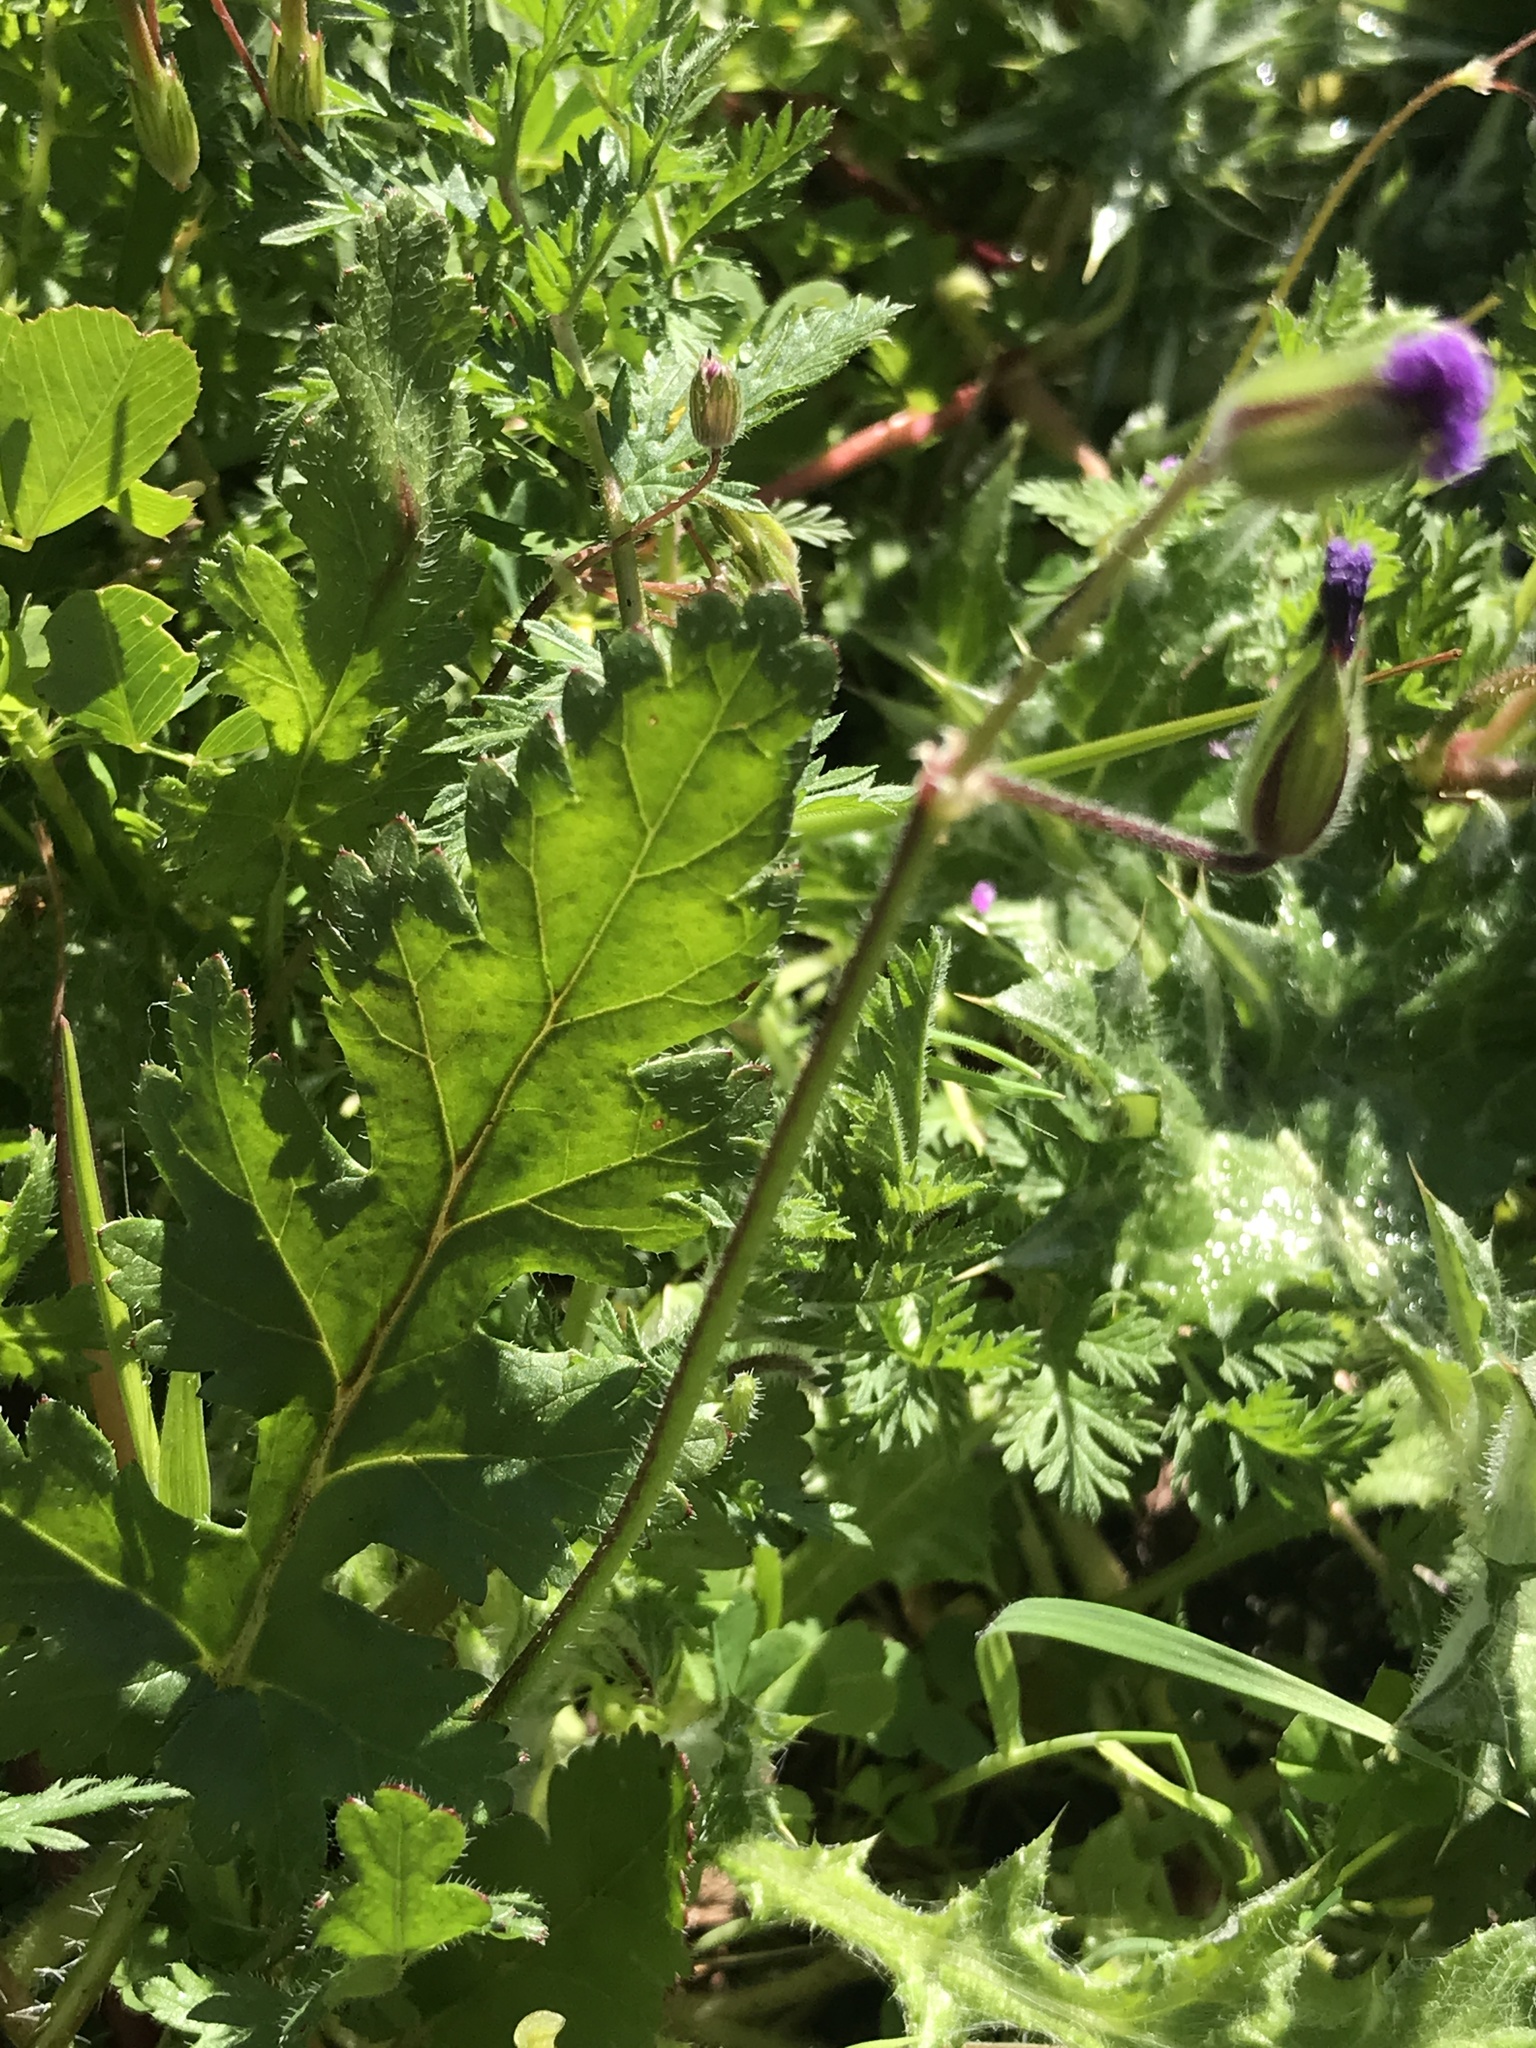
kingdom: Plantae
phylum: Tracheophyta
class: Magnoliopsida
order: Geraniales
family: Geraniaceae
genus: Erodium
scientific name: Erodium botrys
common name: Mediterranean stork's-bill
